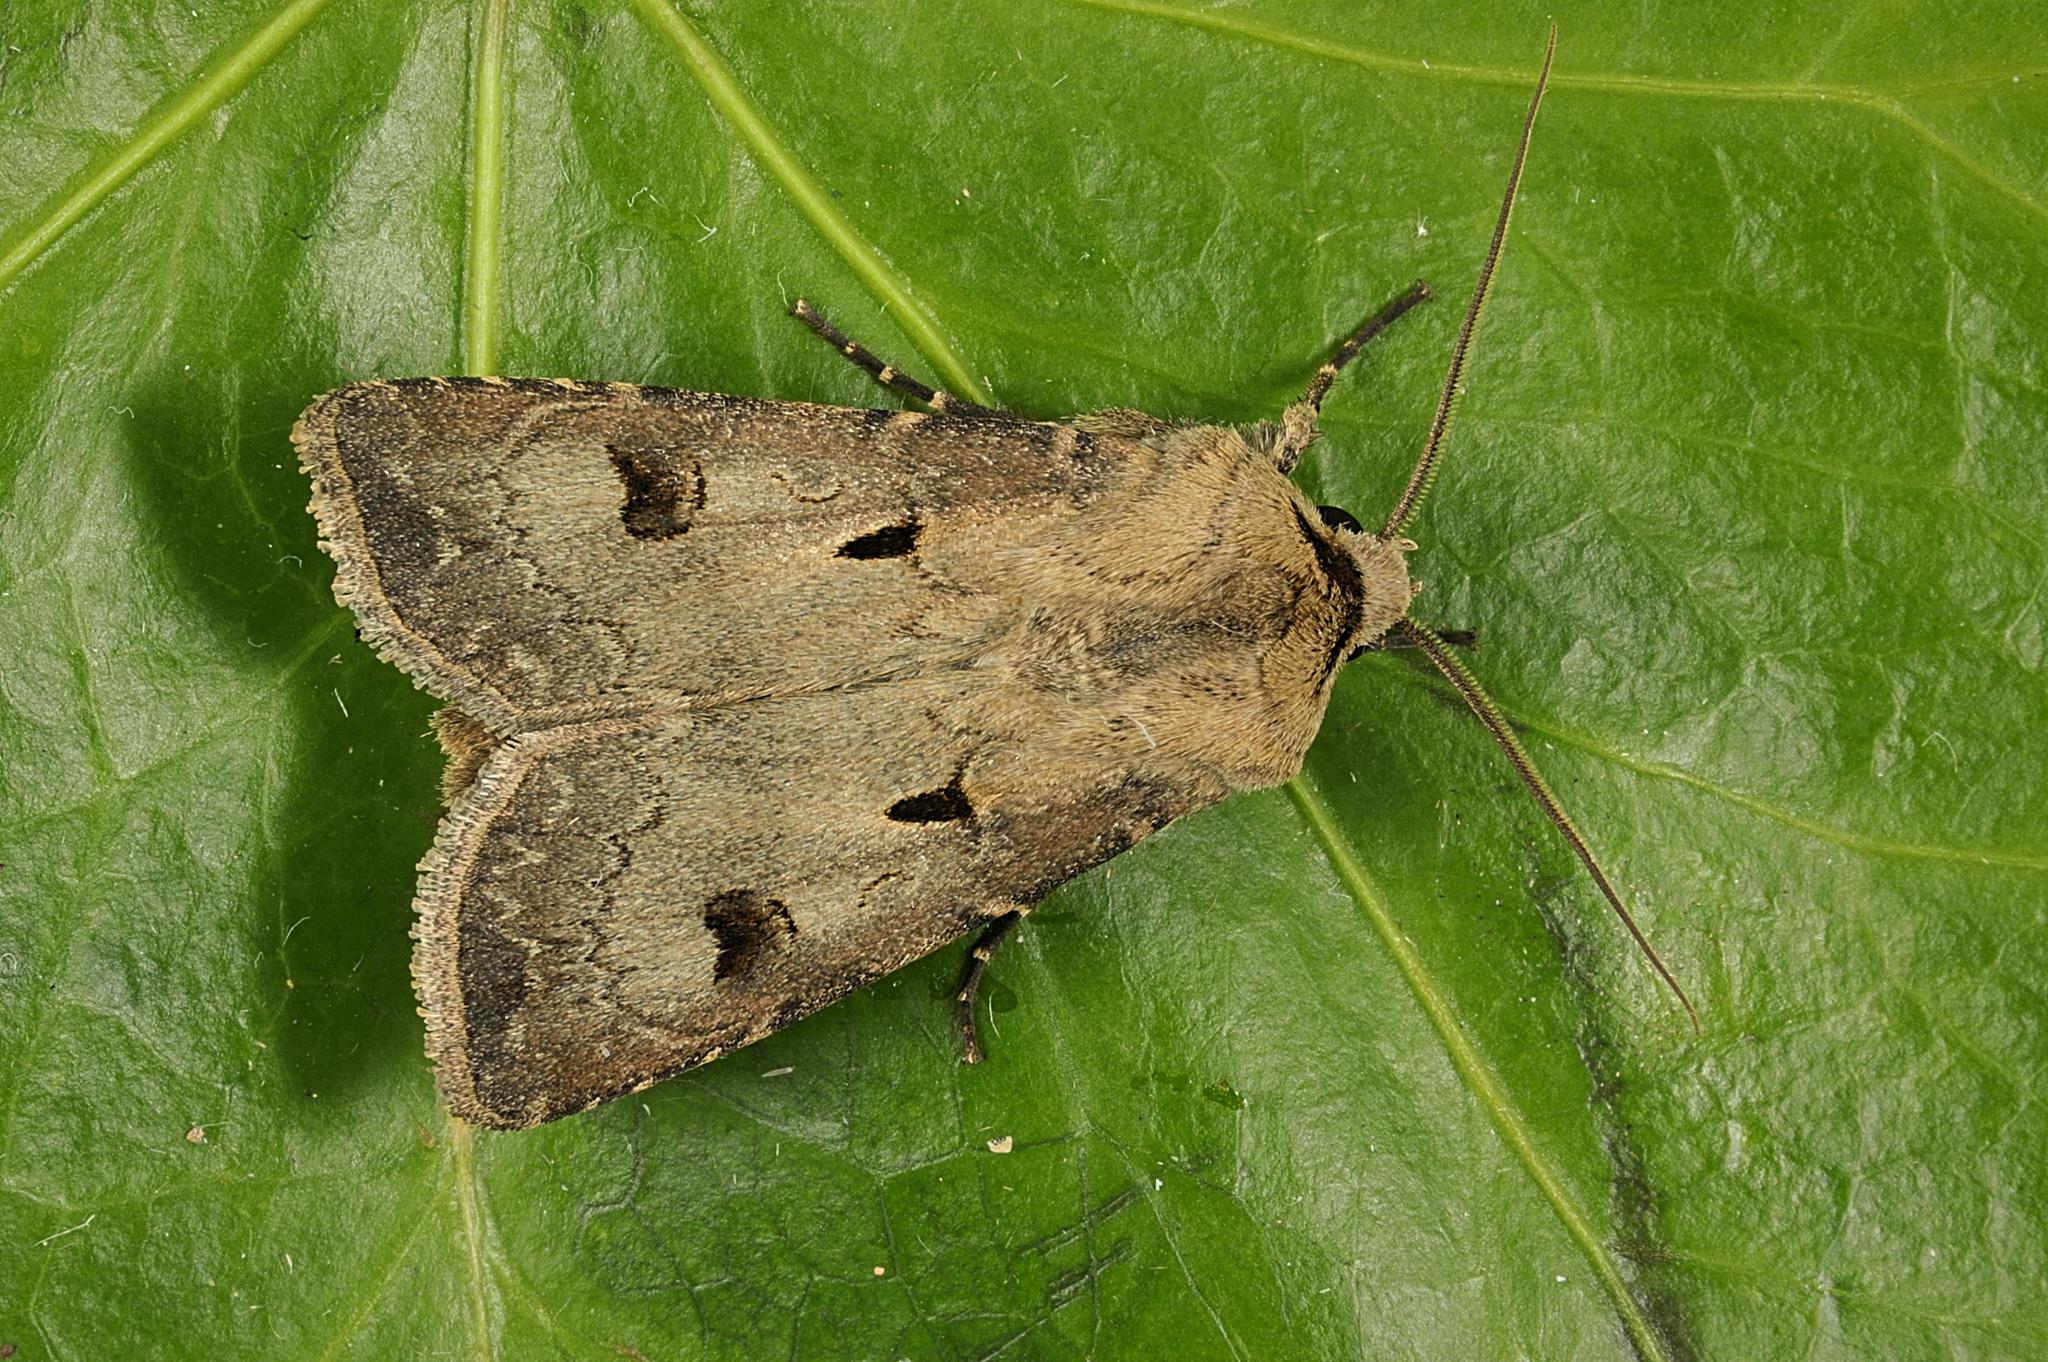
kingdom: Animalia
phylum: Arthropoda
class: Insecta
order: Lepidoptera
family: Noctuidae
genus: Agrotis
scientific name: Agrotis exclamationis
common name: Heart and dart
